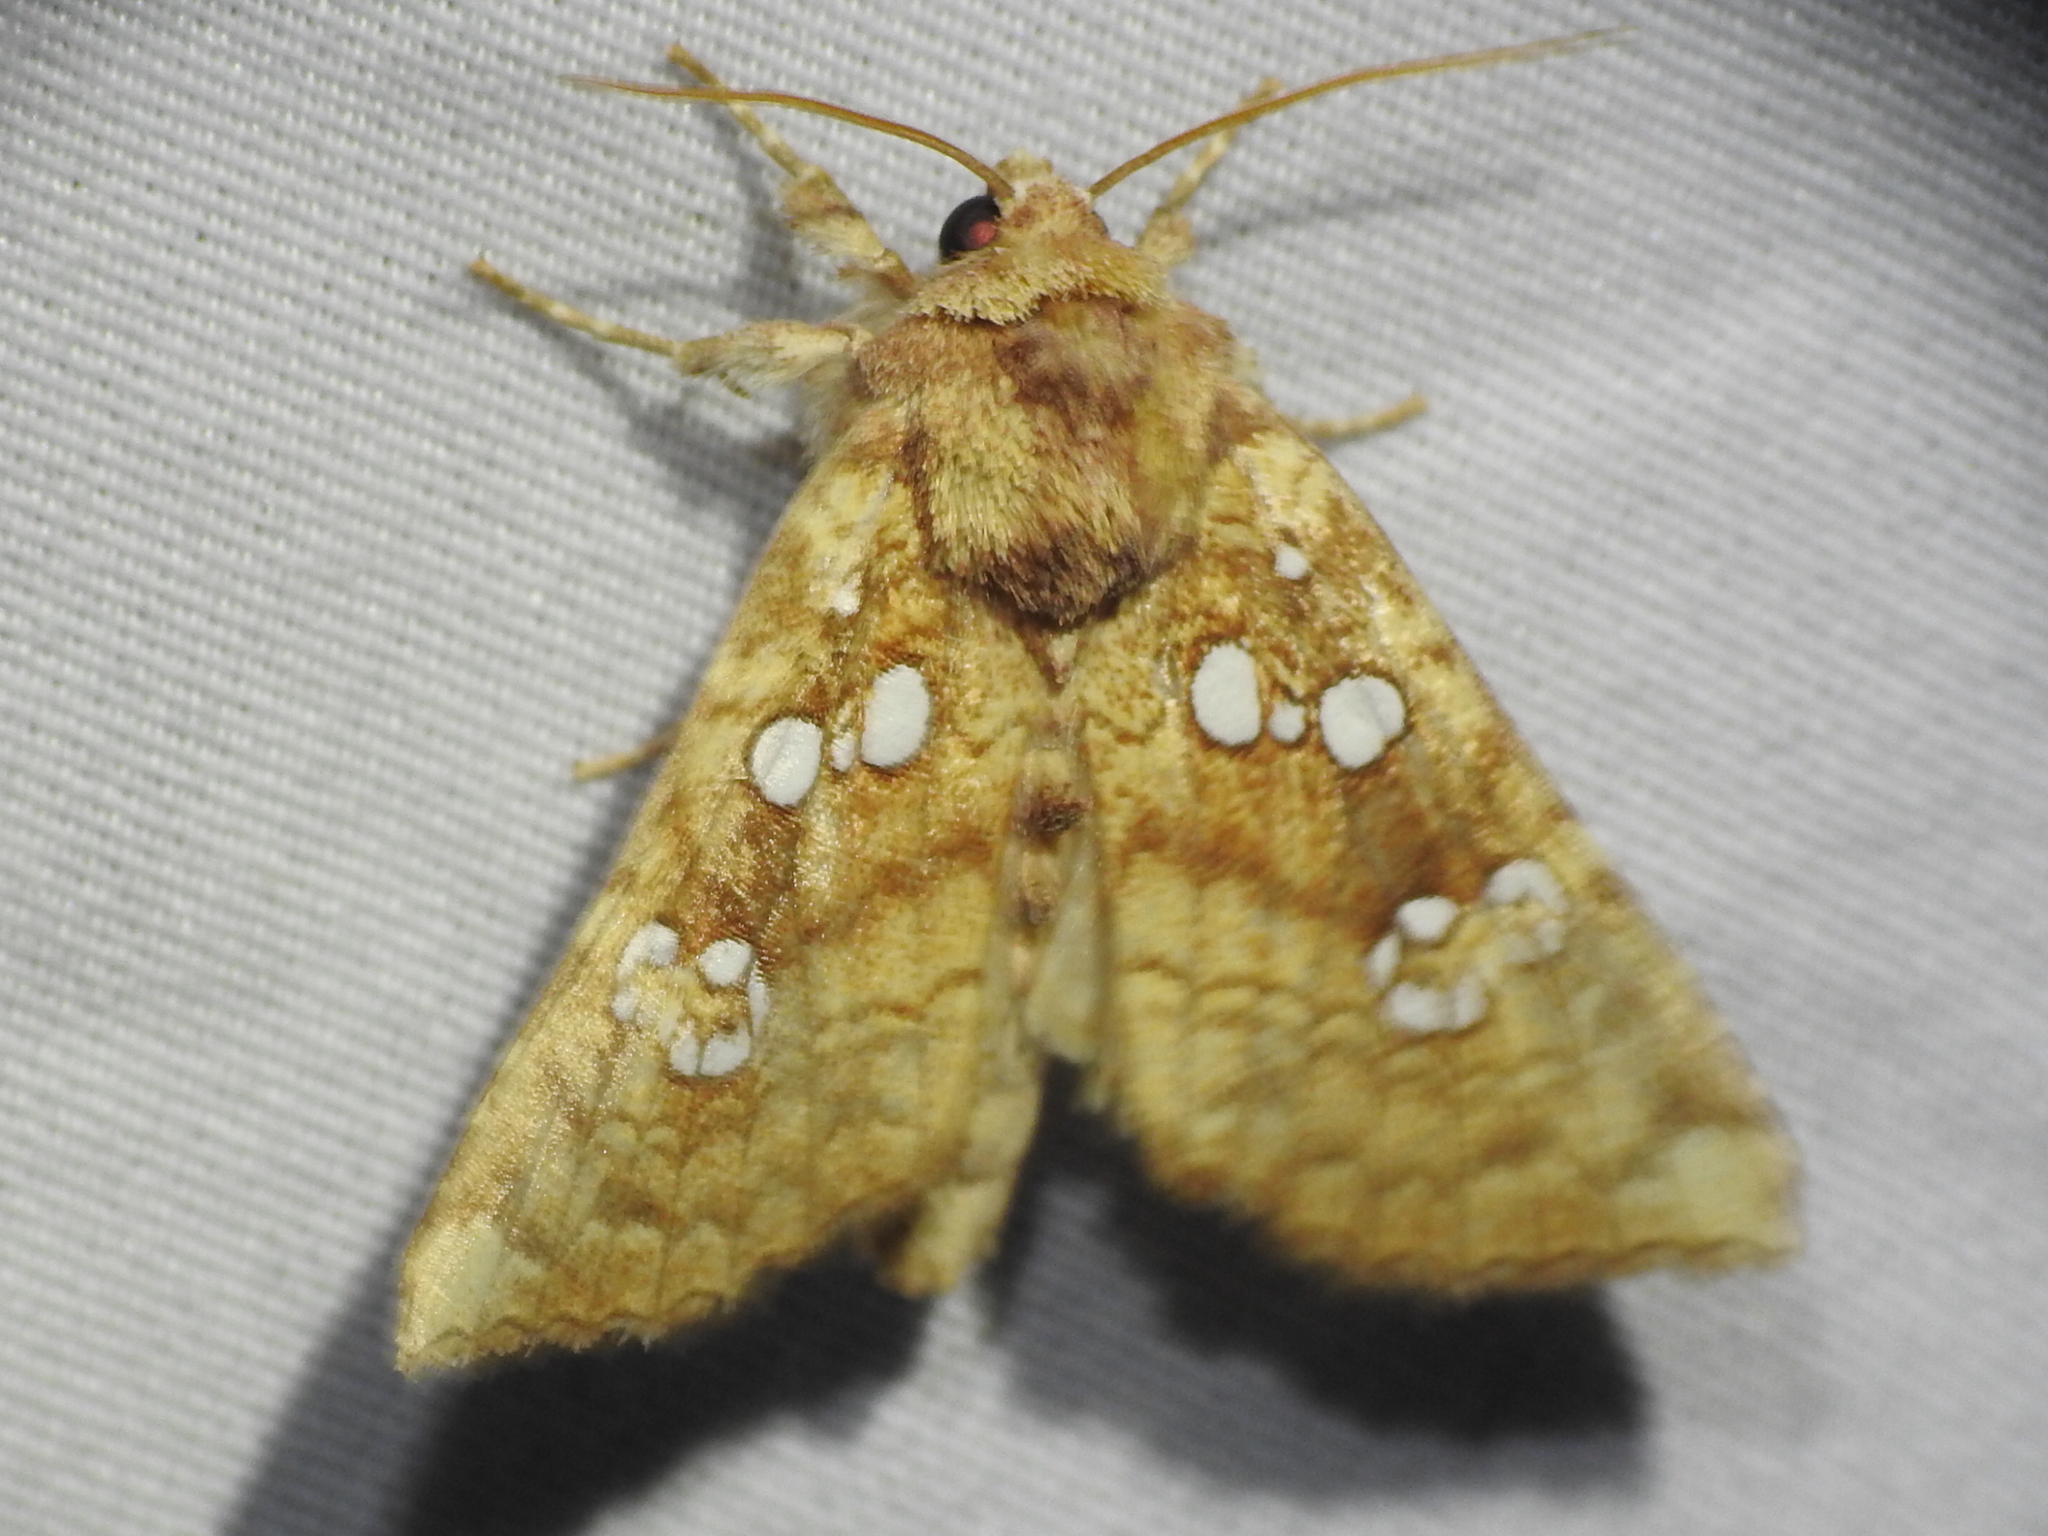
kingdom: Animalia
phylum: Arthropoda
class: Insecta
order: Lepidoptera
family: Noctuidae
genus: Papaipema
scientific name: Papaipema furcata
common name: Ash tip borer moth
